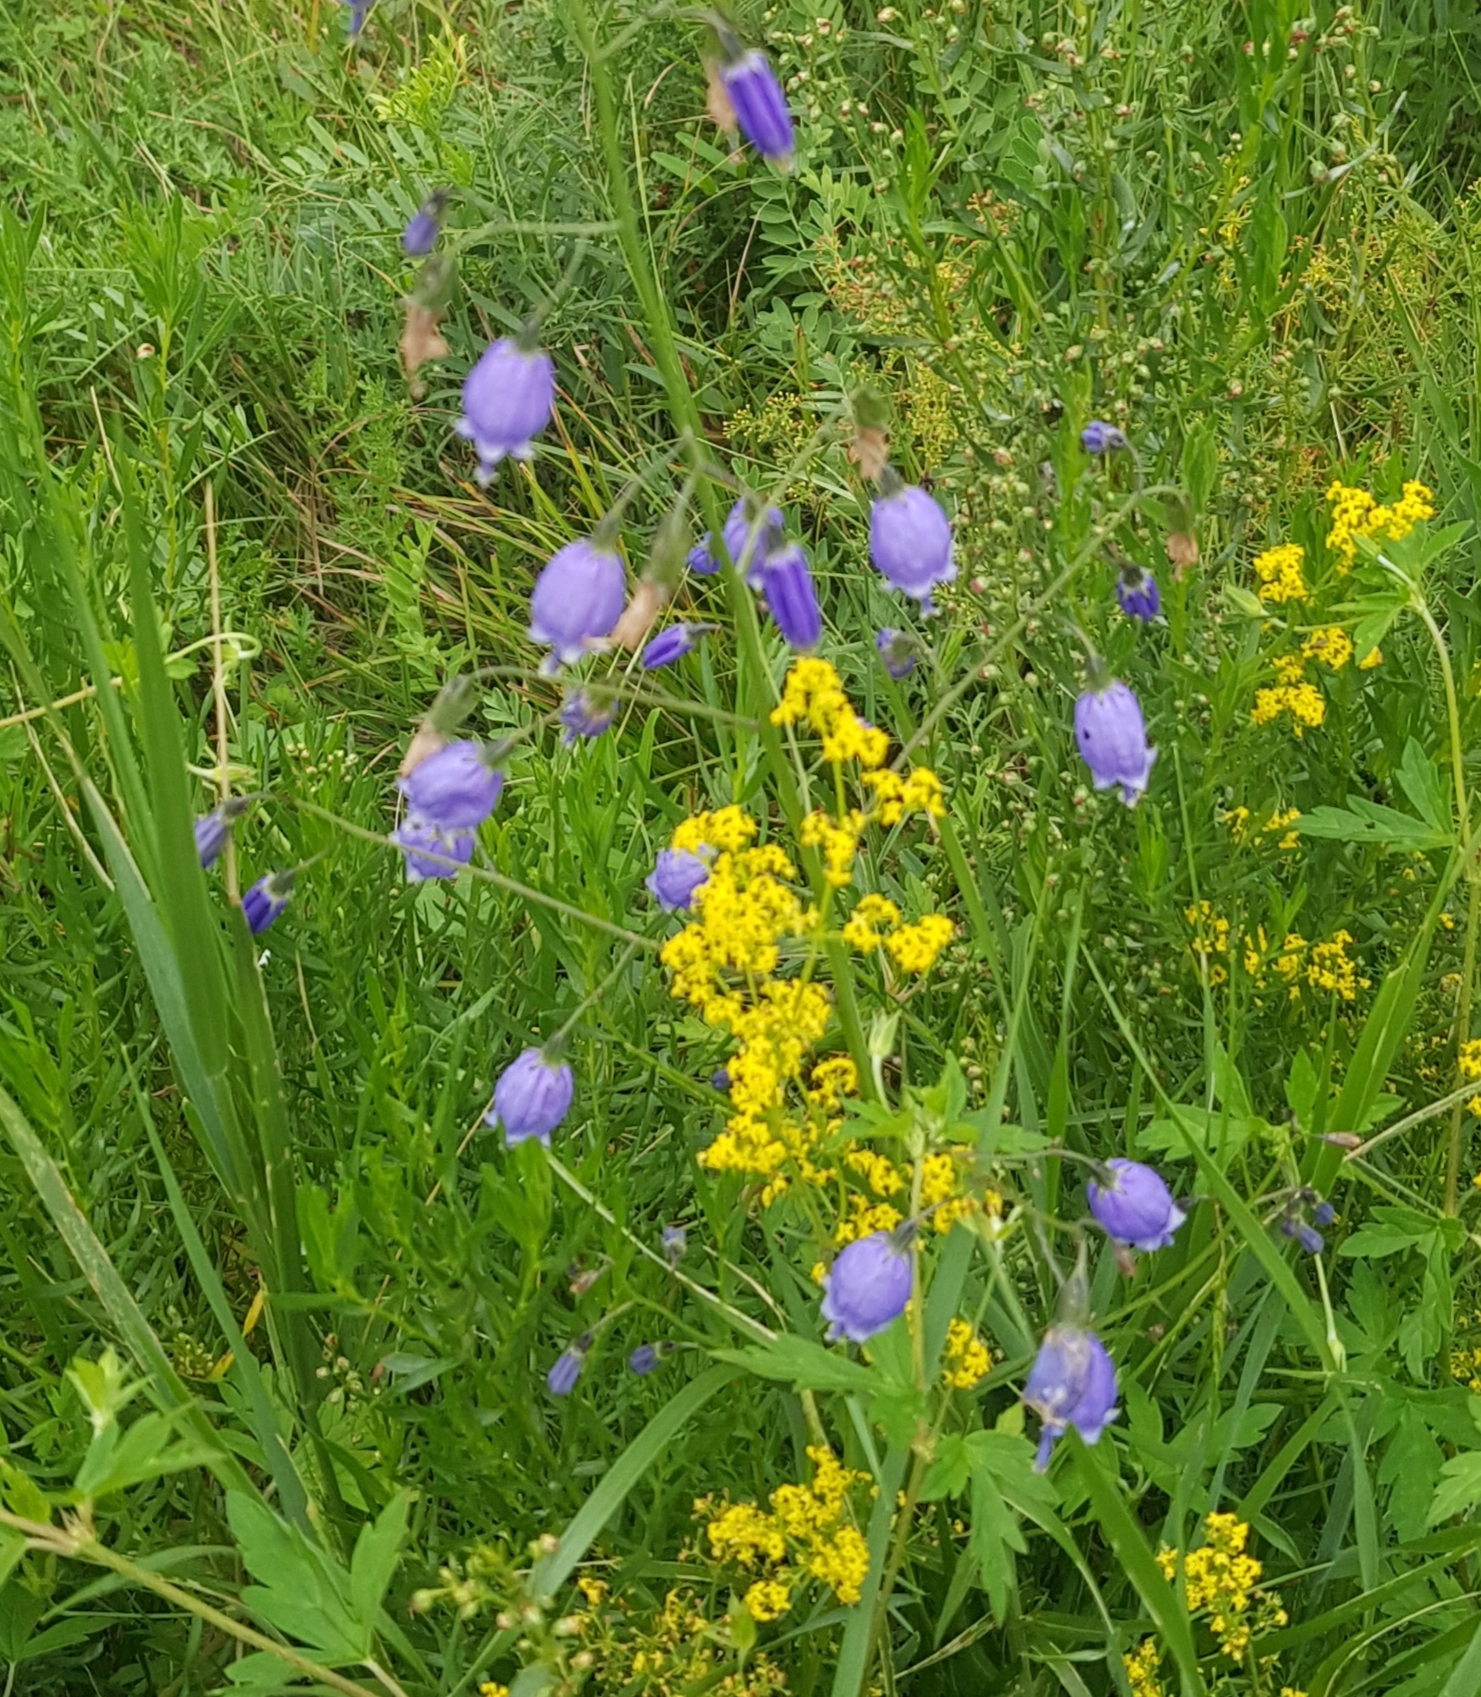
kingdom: Plantae
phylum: Tracheophyta
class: Magnoliopsida
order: Asterales
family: Campanulaceae
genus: Adenophora
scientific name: Adenophora stenanthina
